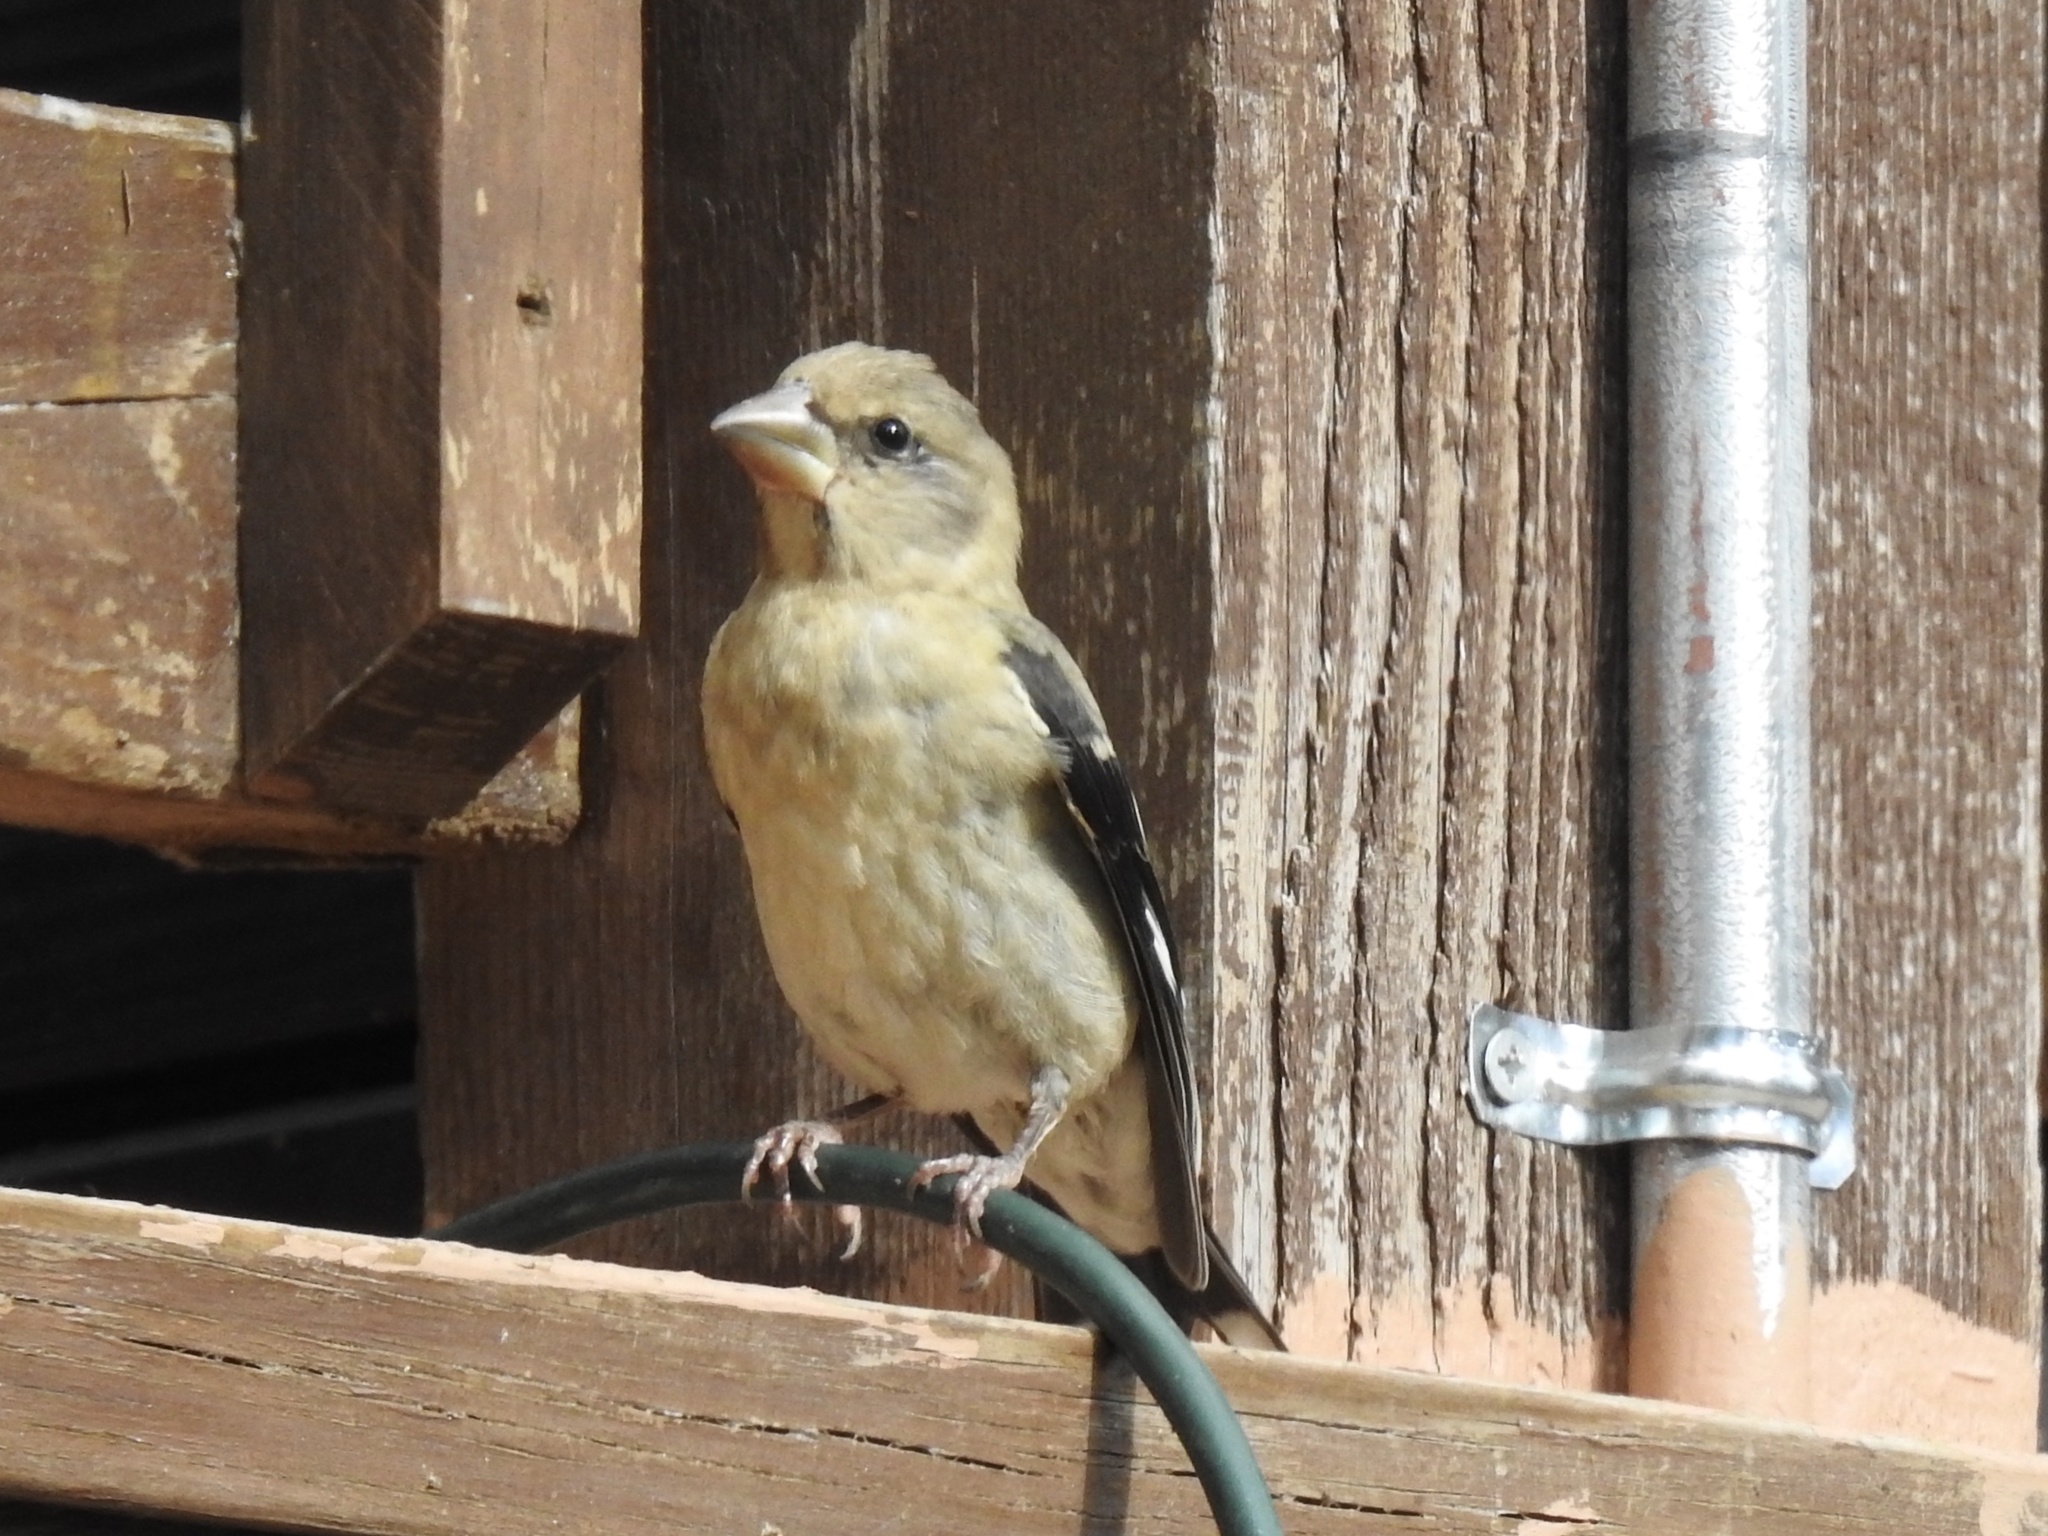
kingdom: Animalia
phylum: Chordata
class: Aves
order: Passeriformes
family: Fringillidae
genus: Hesperiphona
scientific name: Hesperiphona vespertina
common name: Evening grosbeak
